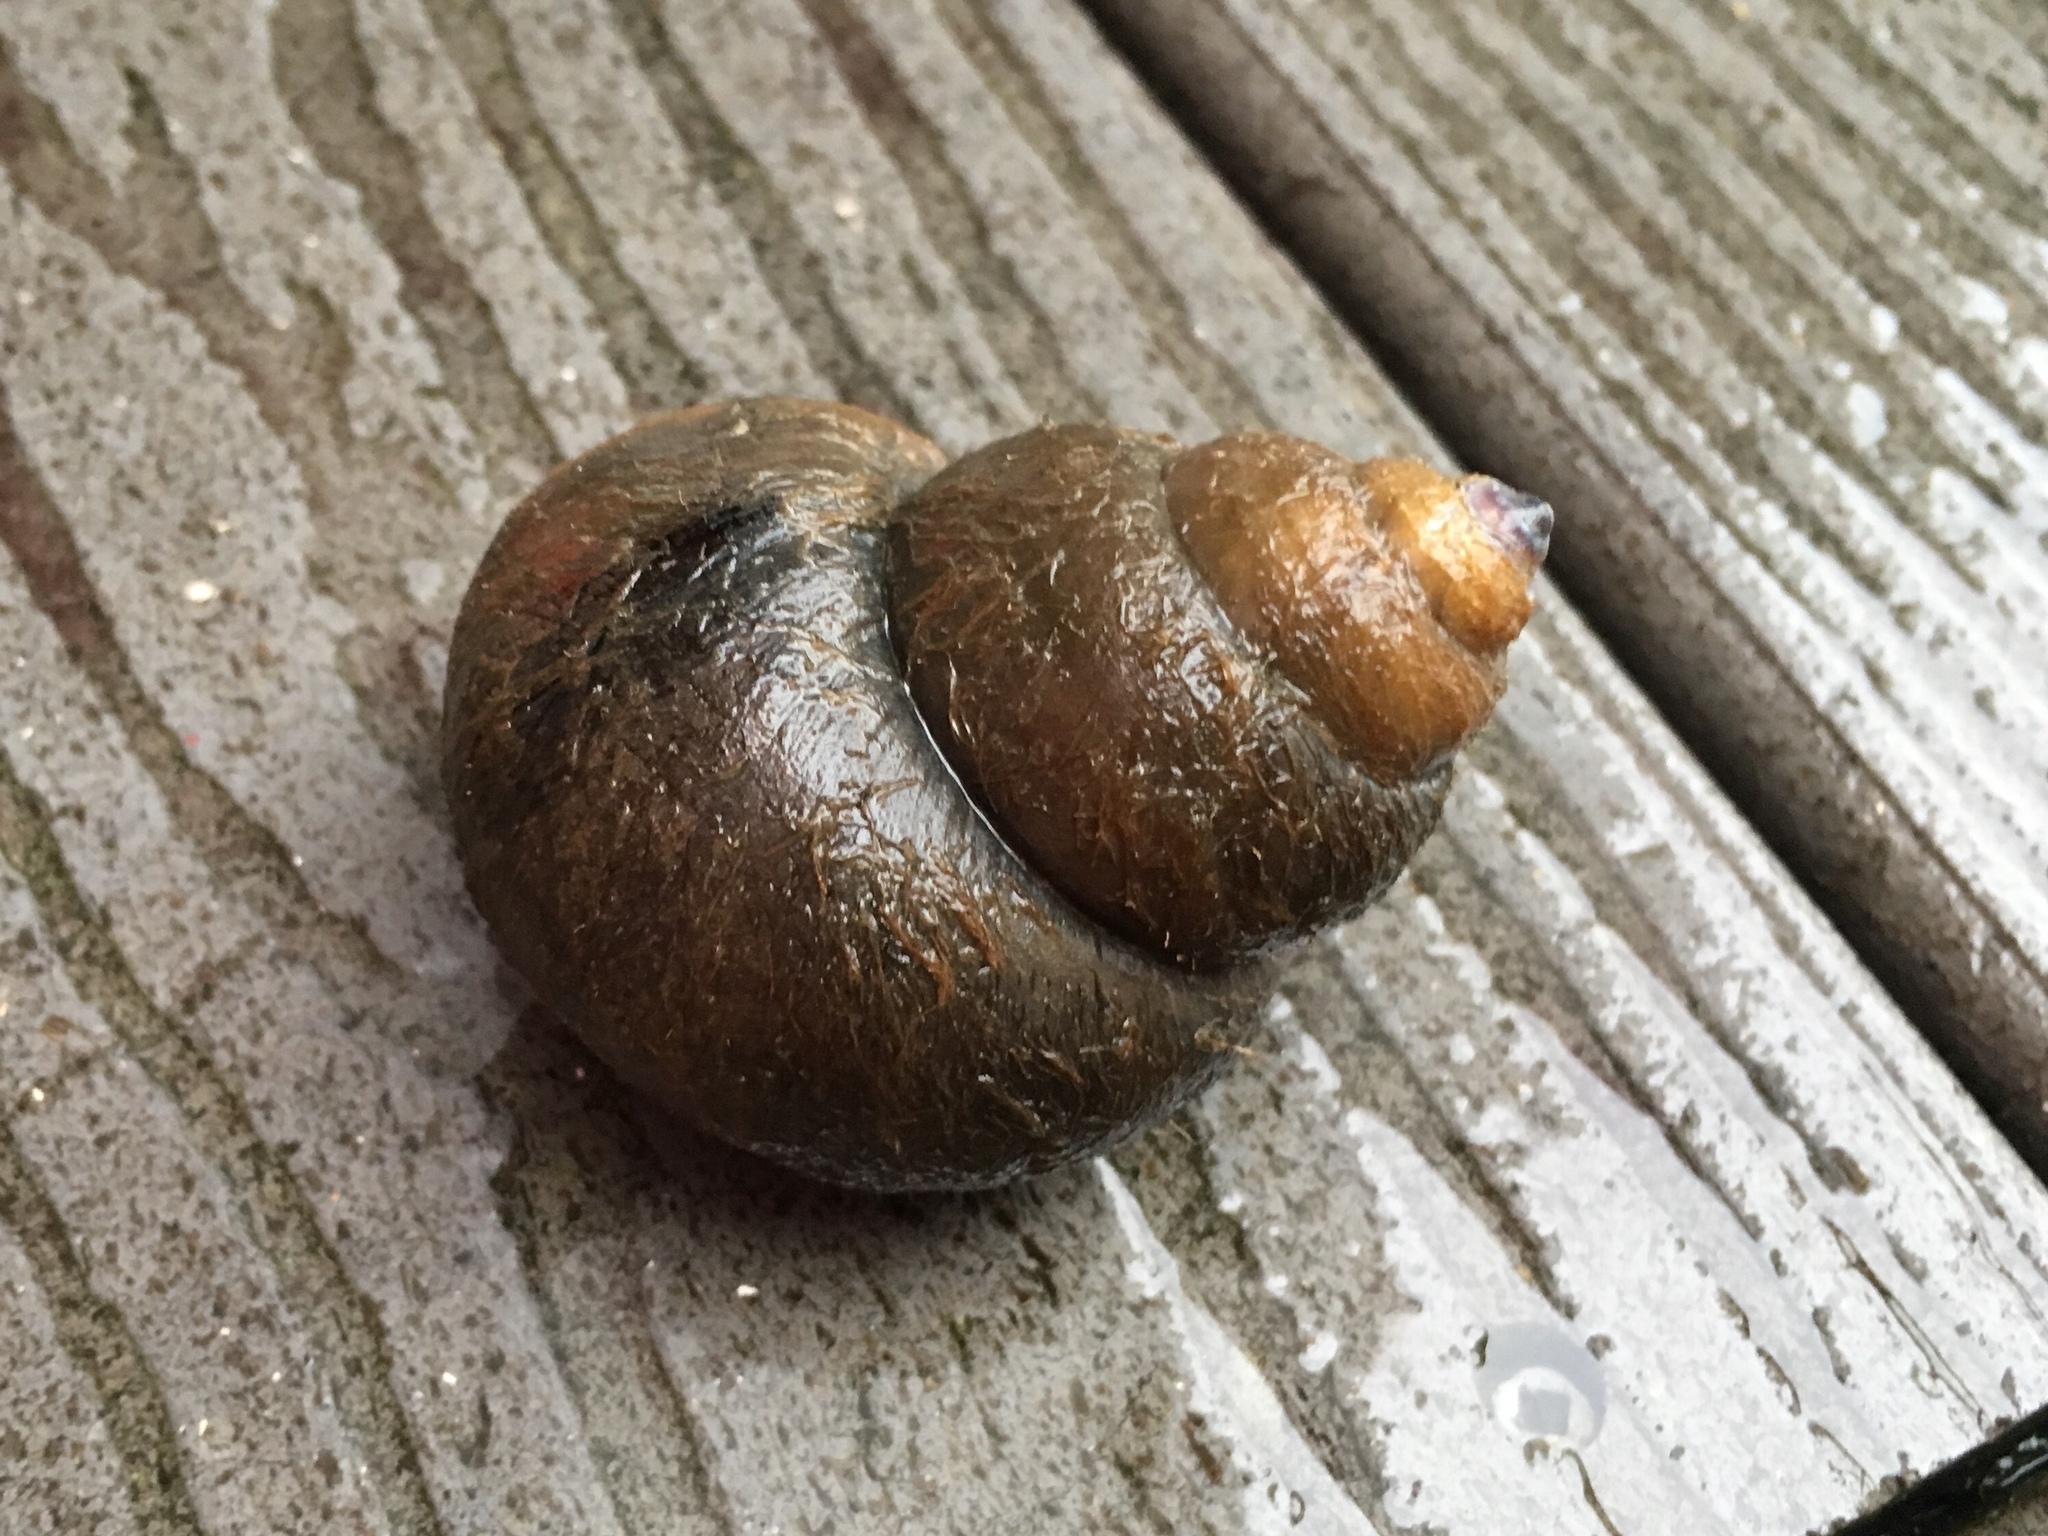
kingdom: Animalia
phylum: Mollusca
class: Gastropoda
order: Architaenioglossa
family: Viviparidae
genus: Cipangopaludina
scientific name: Cipangopaludina chinensis
